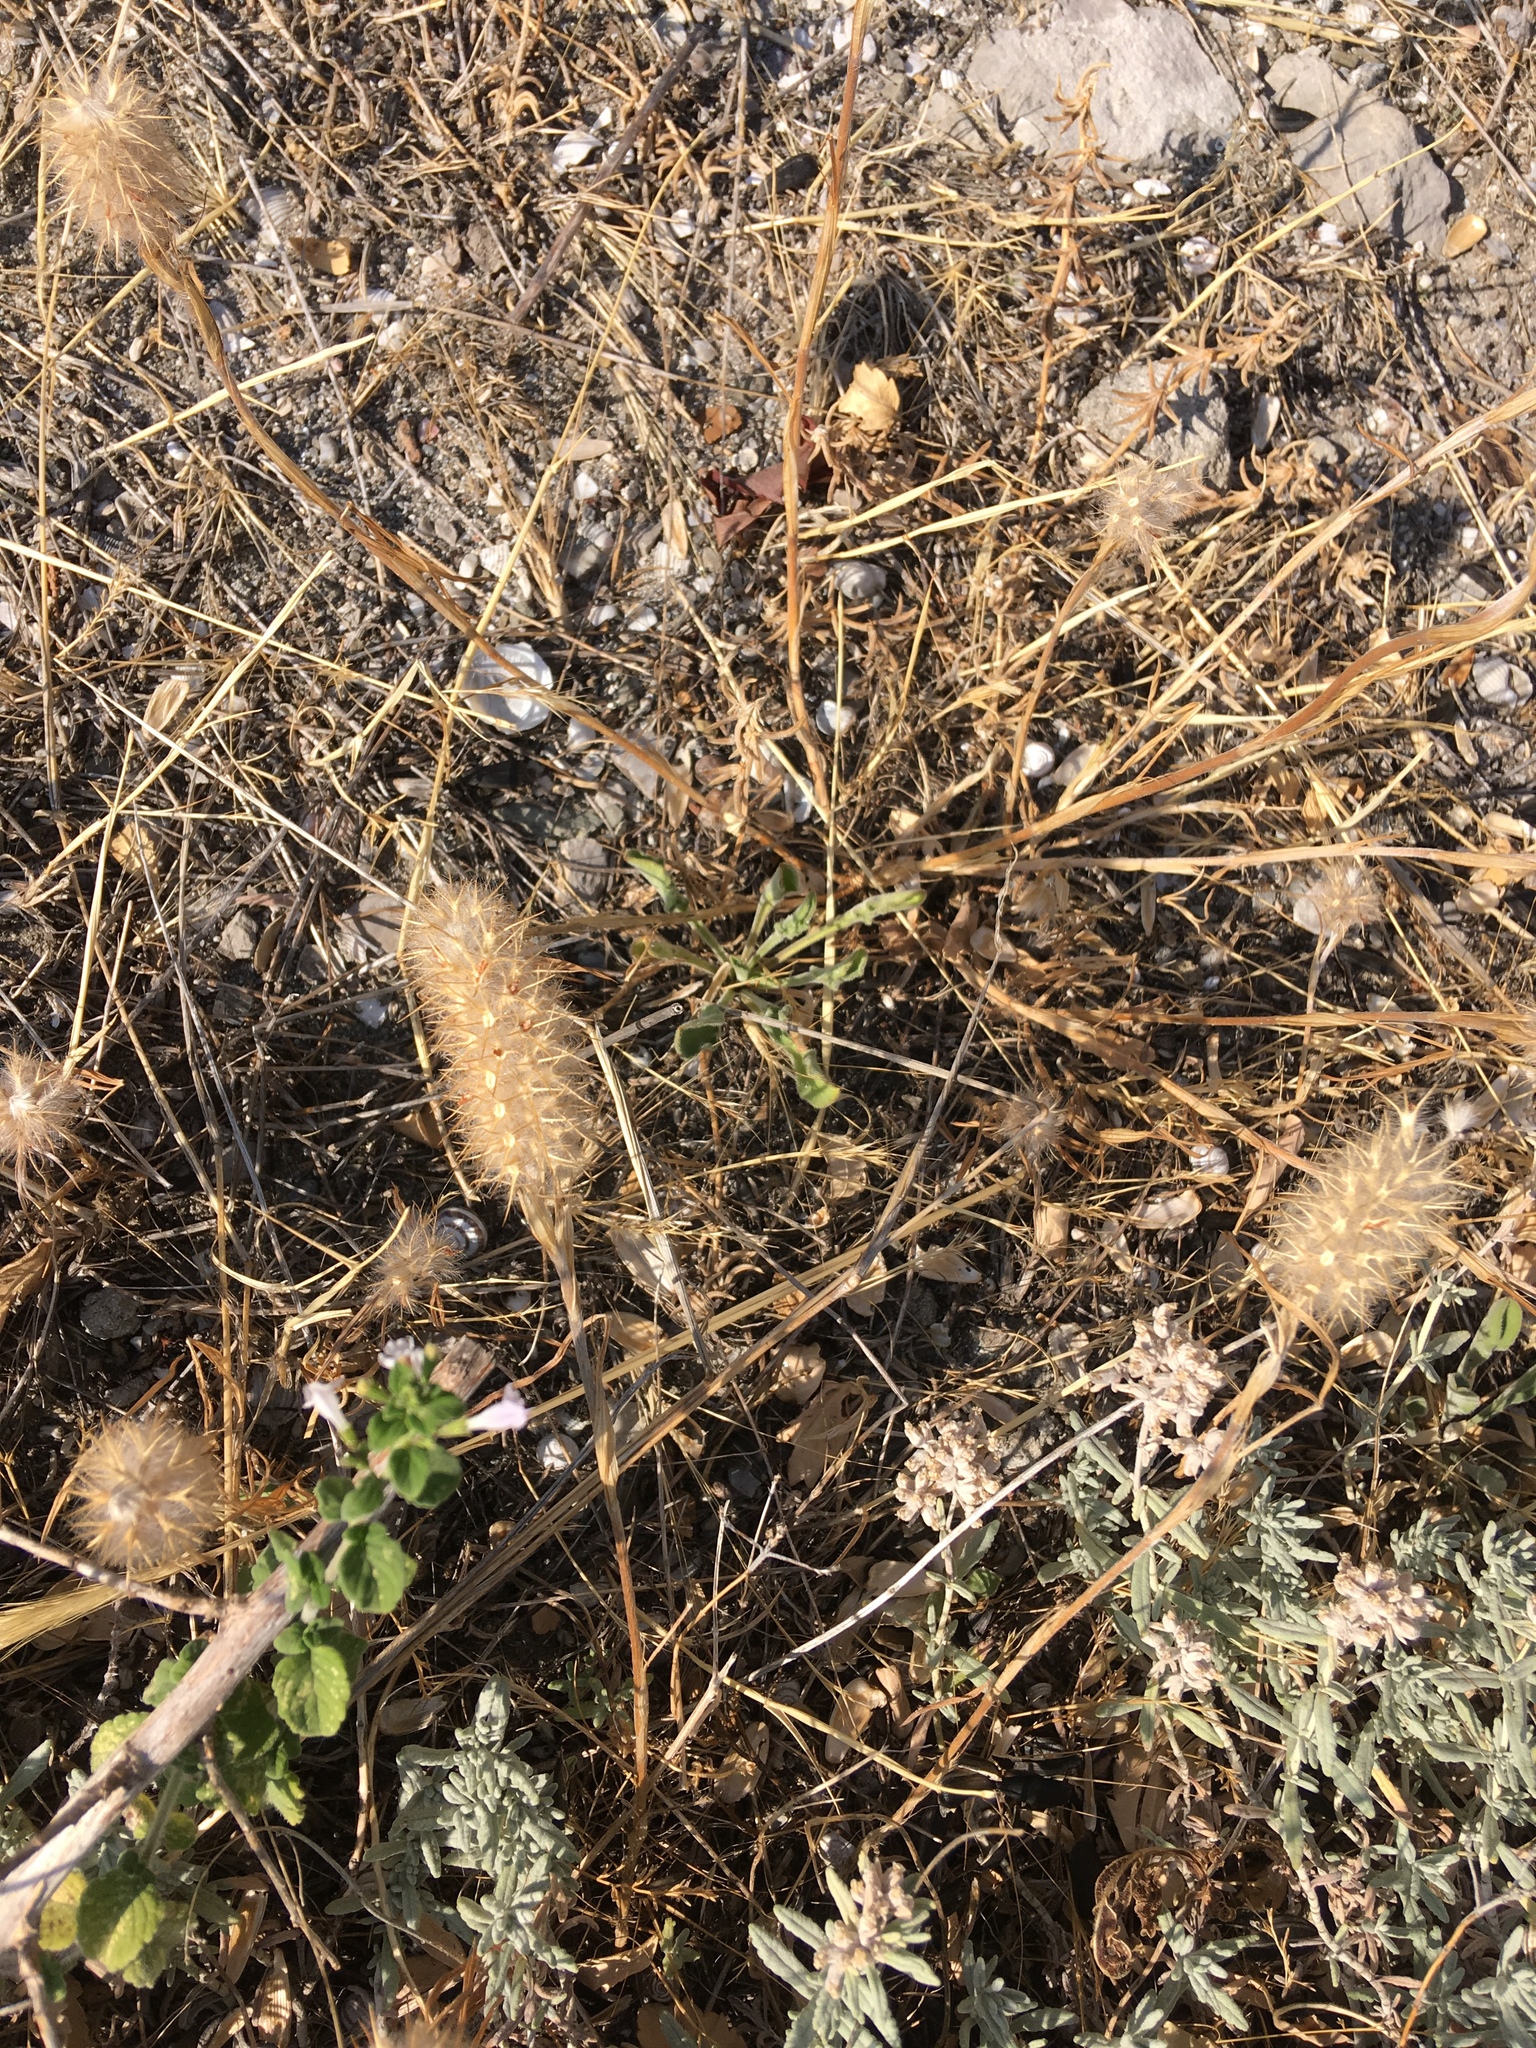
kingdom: Plantae
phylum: Tracheophyta
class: Magnoliopsida
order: Fabales
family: Fabaceae
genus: Trifolium
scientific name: Trifolium angustifolium
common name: Narrow clover
